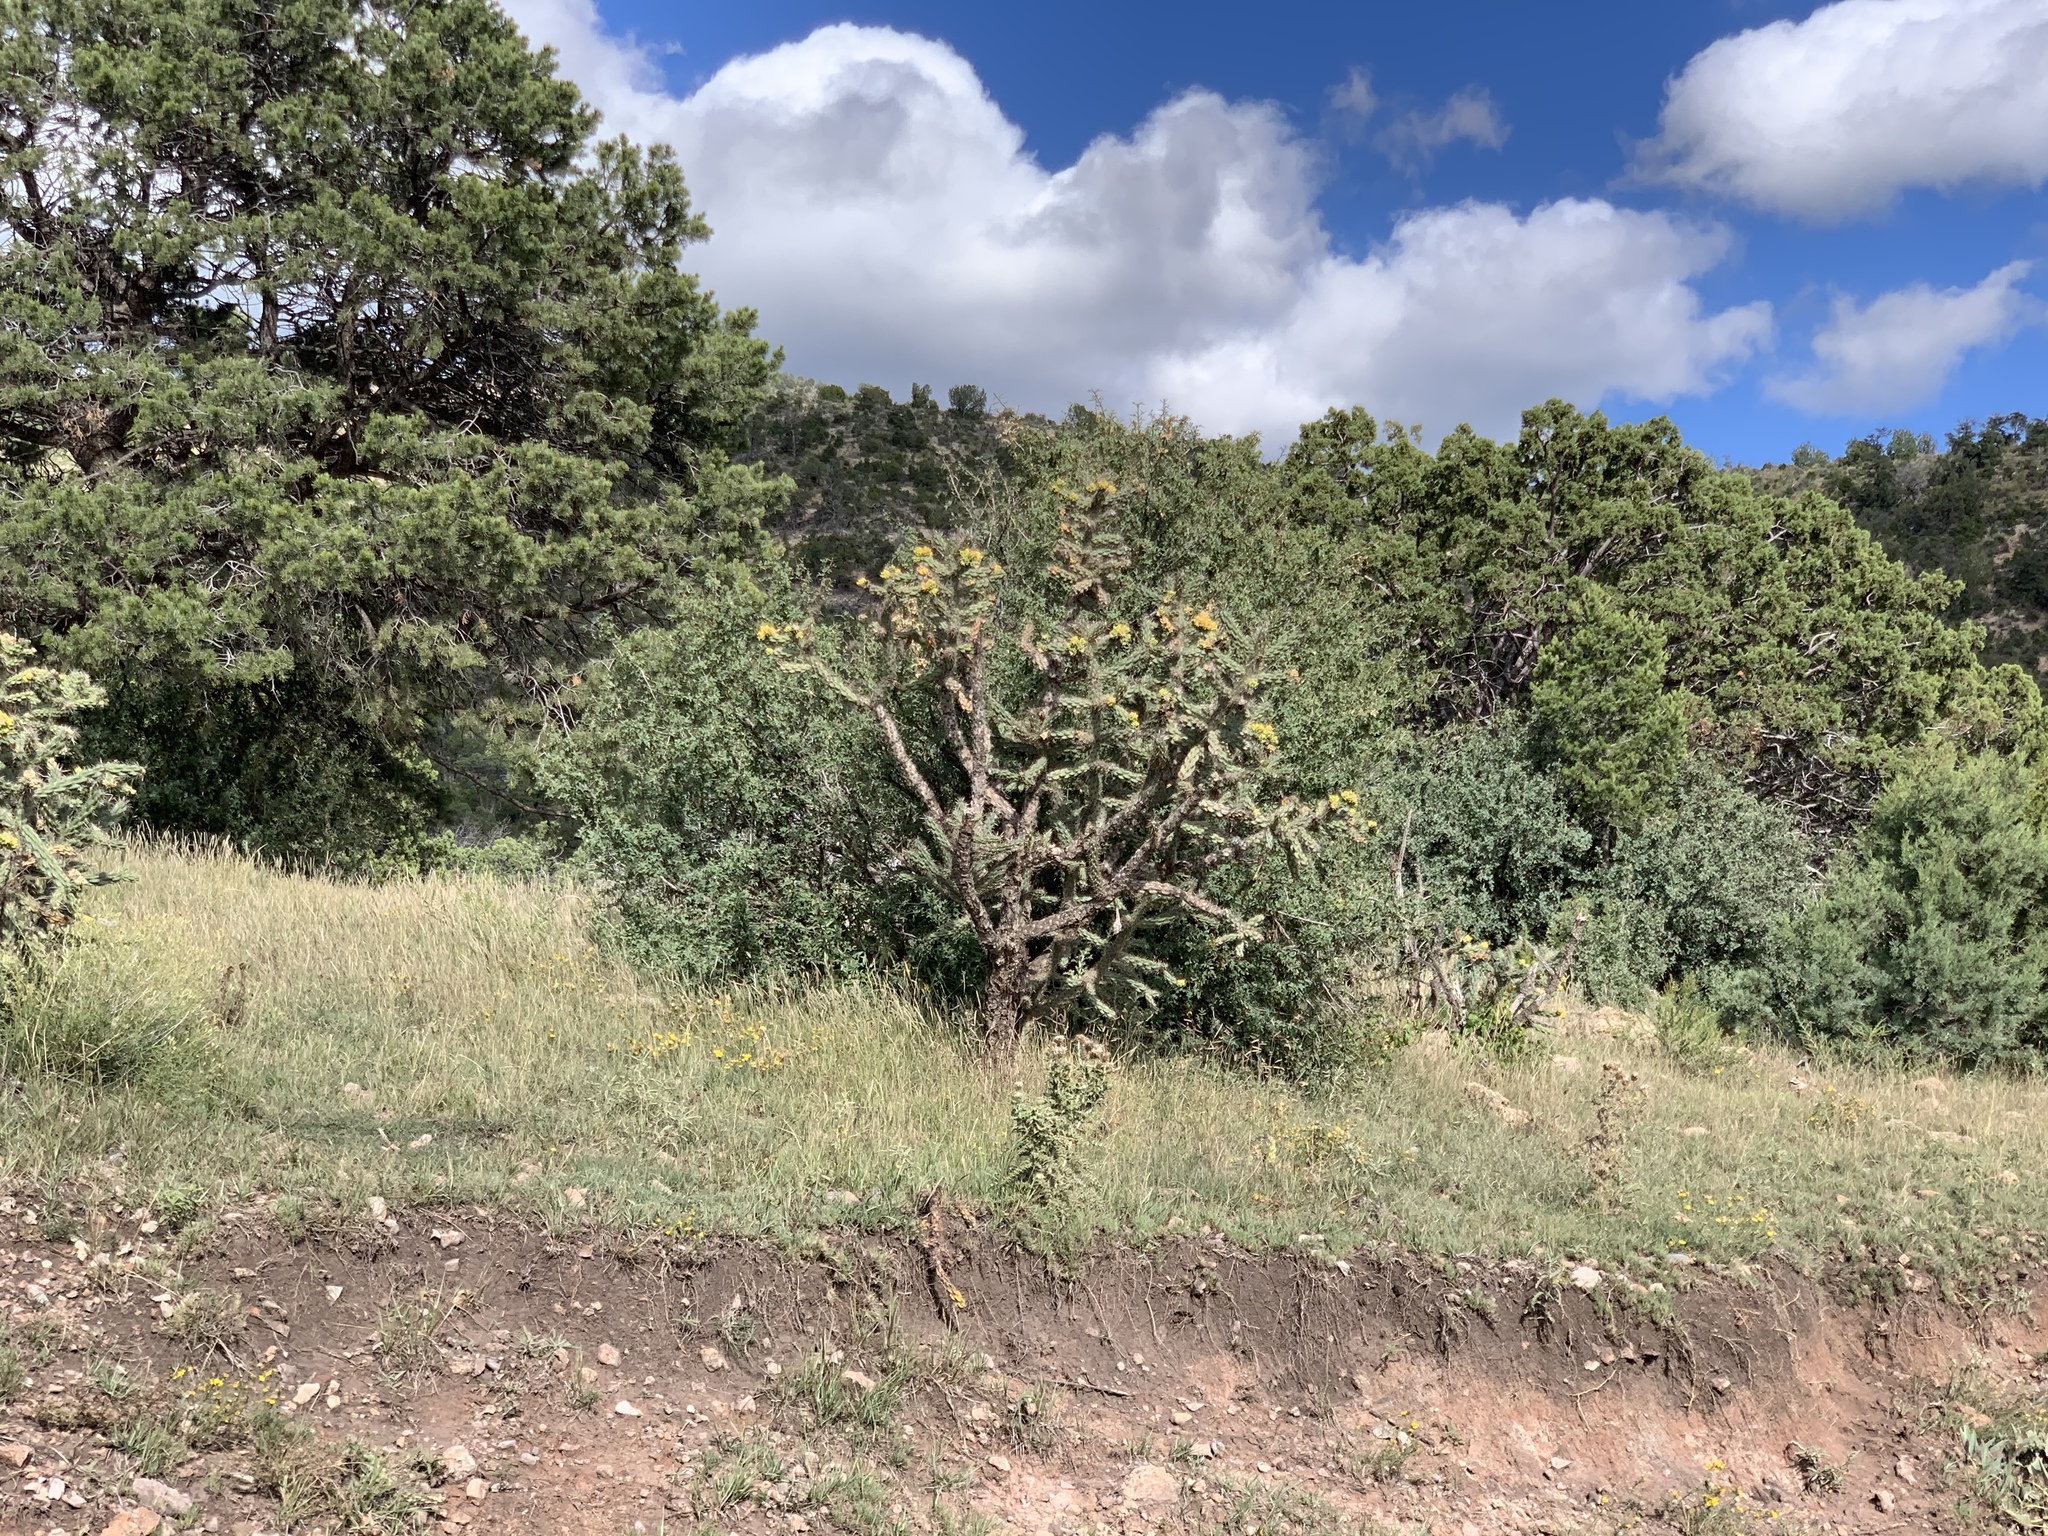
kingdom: Plantae
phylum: Tracheophyta
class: Magnoliopsida
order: Caryophyllales
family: Cactaceae
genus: Cylindropuntia
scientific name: Cylindropuntia imbricata
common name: Candelabrum cactus
